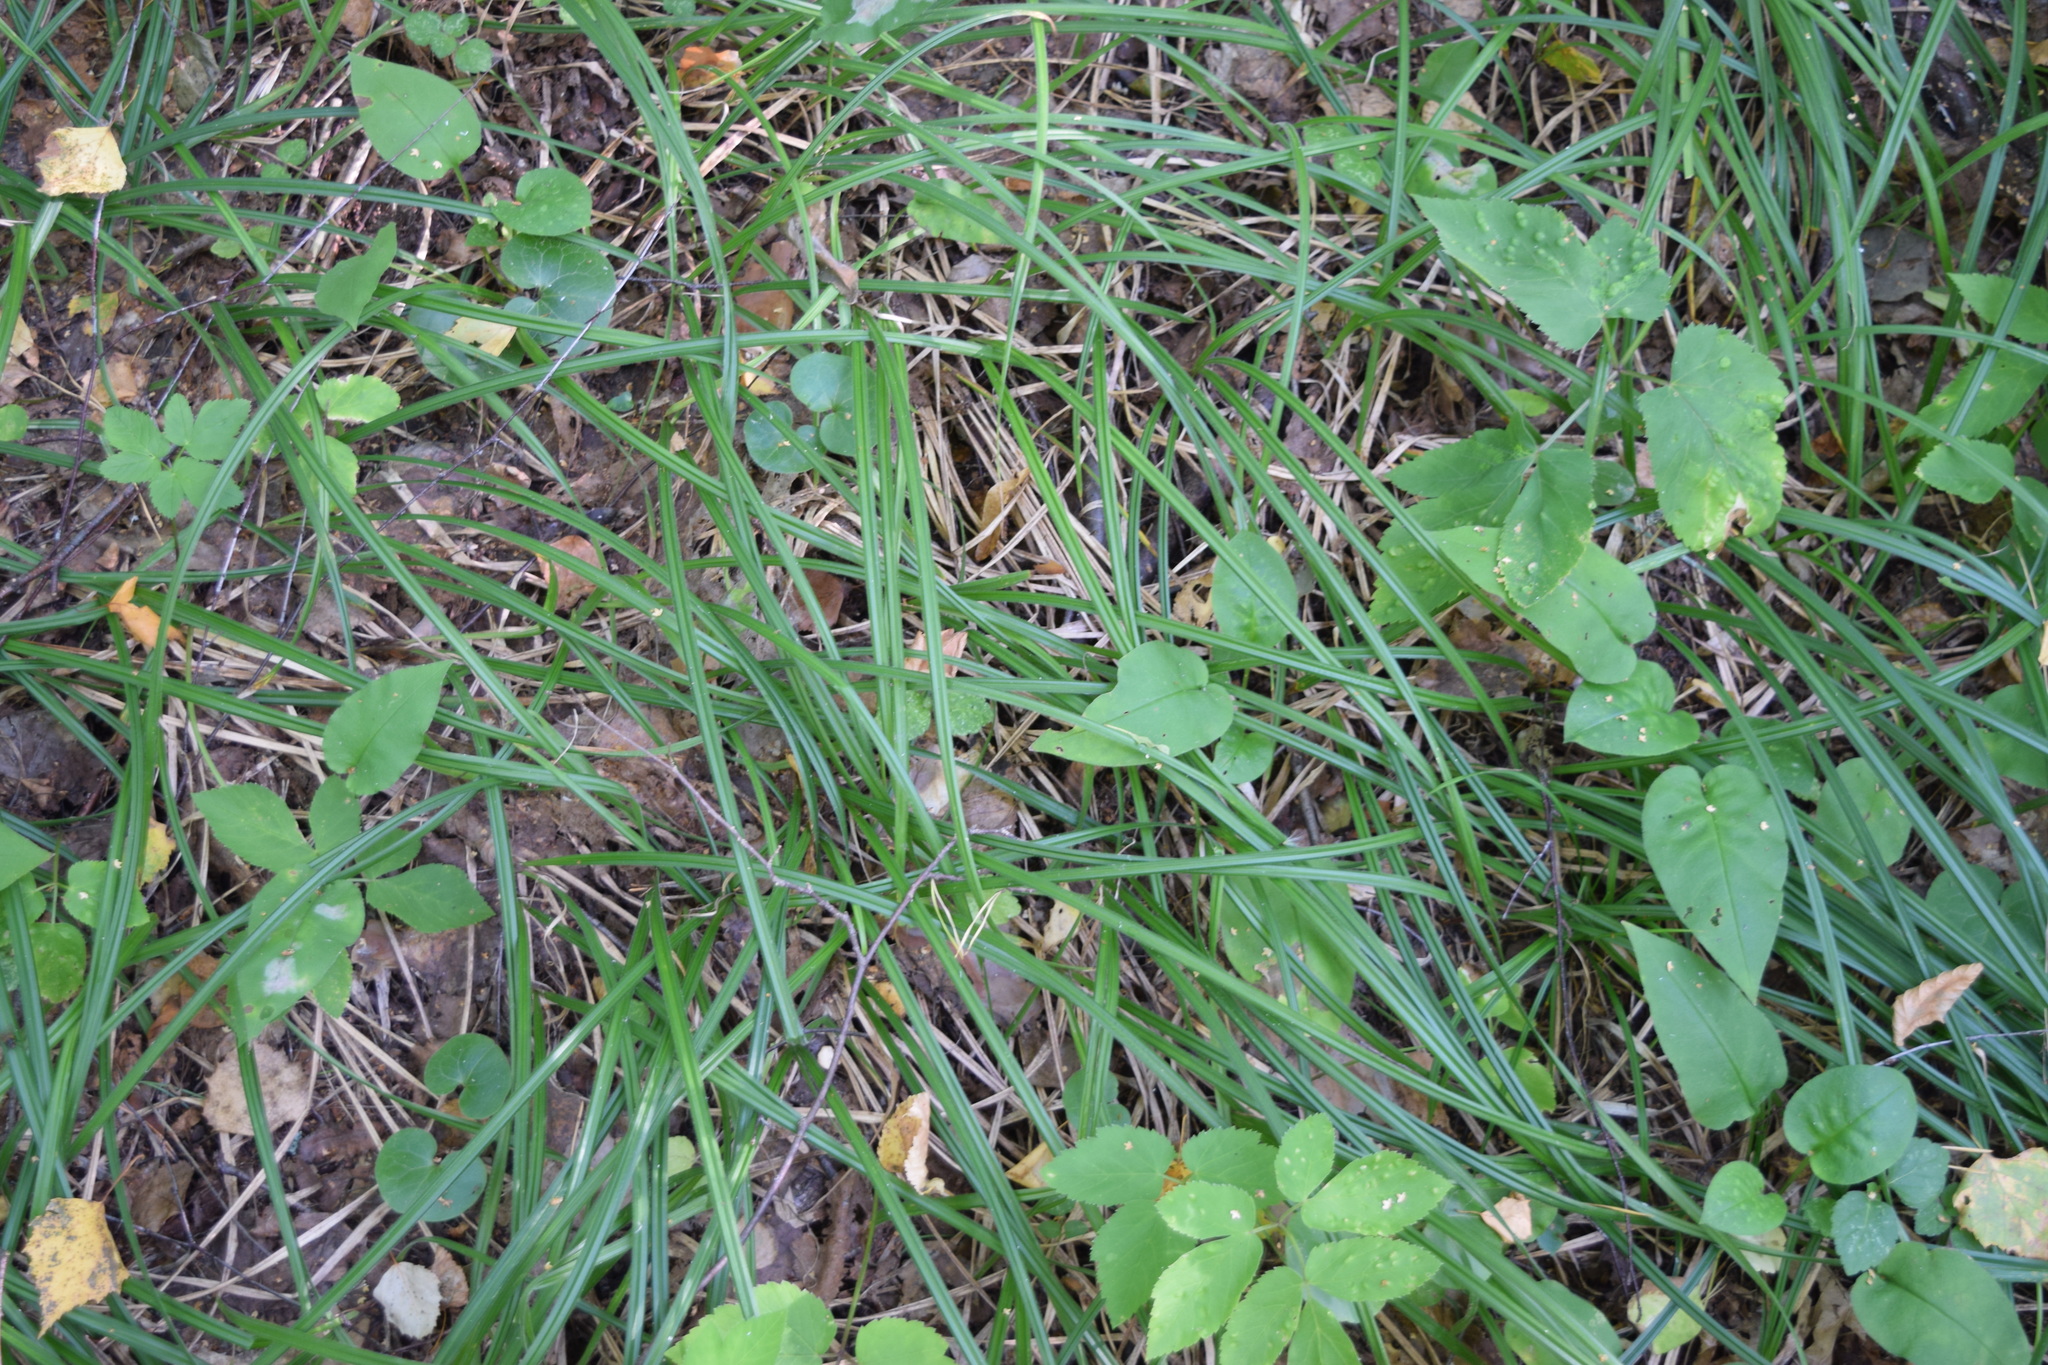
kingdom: Plantae
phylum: Tracheophyta
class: Liliopsida
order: Poales
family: Cyperaceae
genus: Carex
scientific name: Carex pilosa
